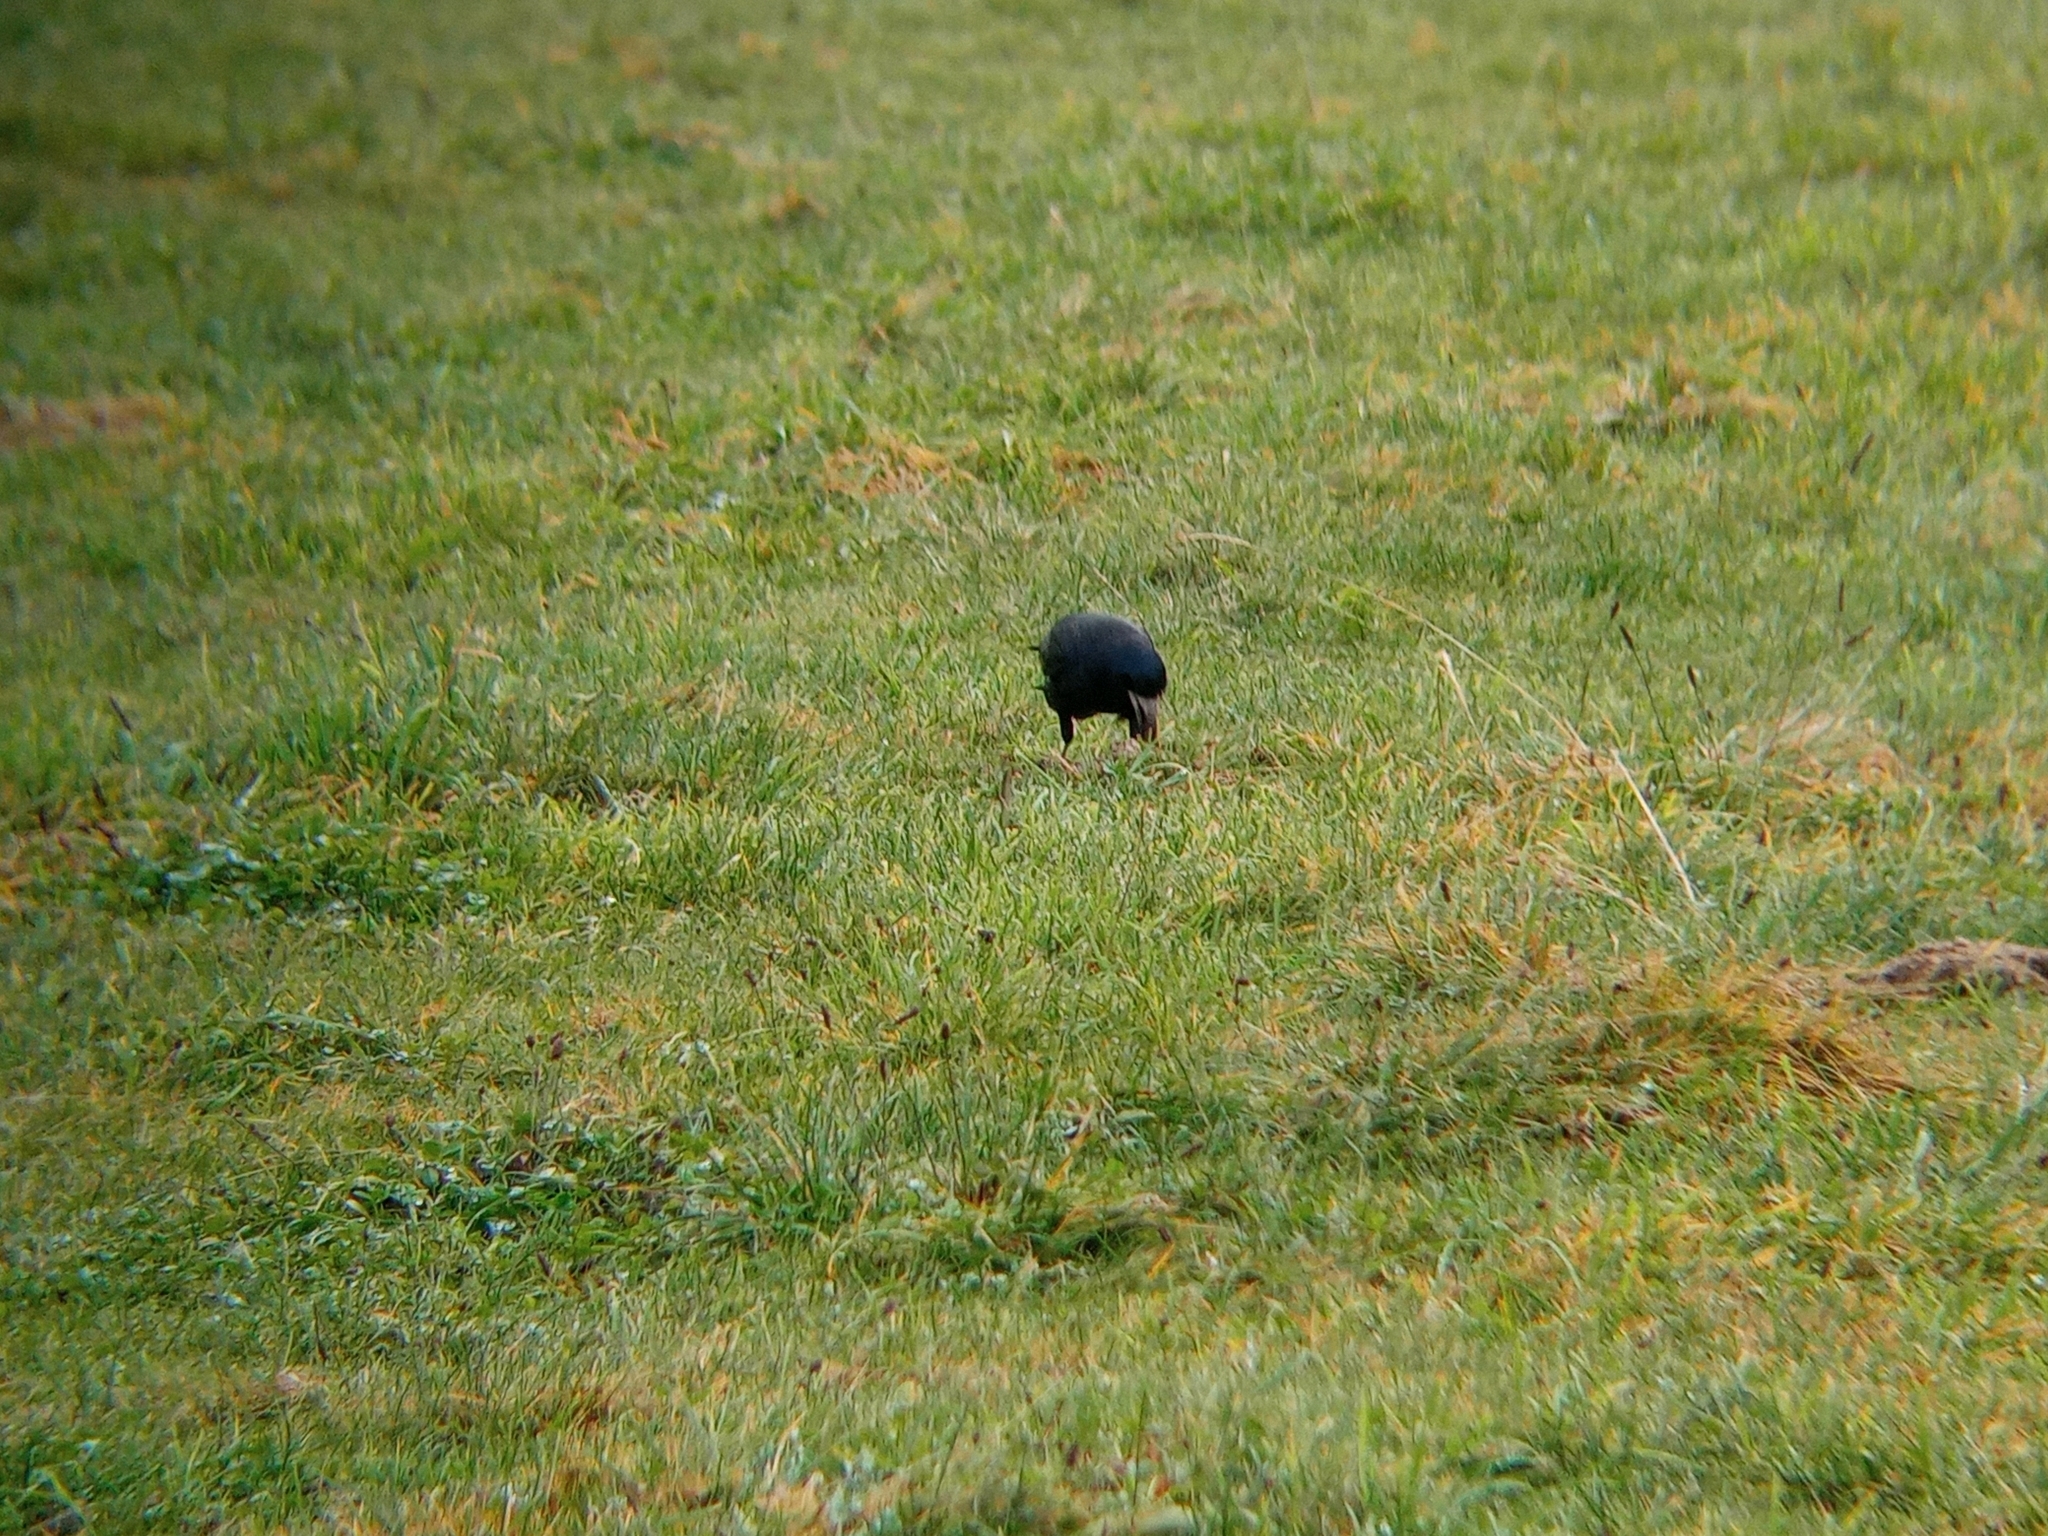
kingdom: Animalia
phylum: Chordata
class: Aves
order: Passeriformes
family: Corvidae
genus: Corvus
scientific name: Corvus frugilegus
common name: Rook
